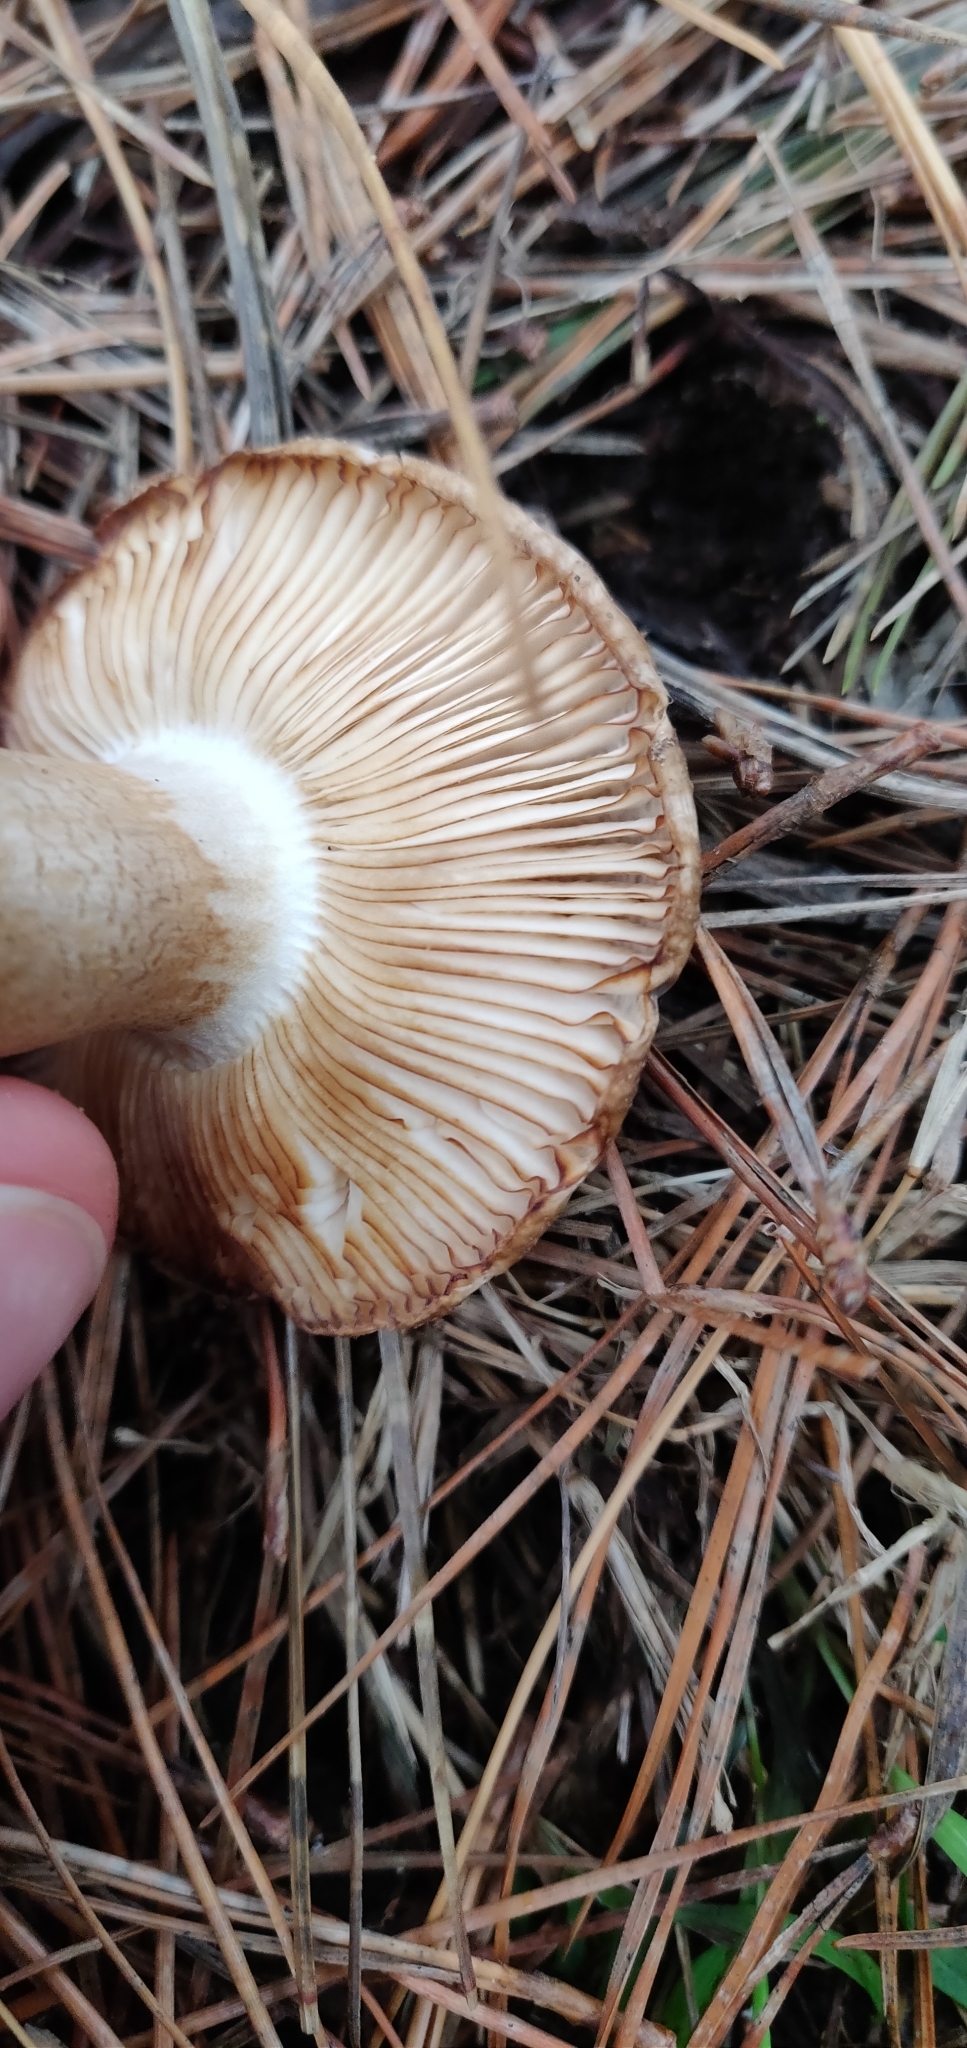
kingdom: Fungi
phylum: Basidiomycota
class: Agaricomycetes
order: Russulales
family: Russulaceae
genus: Russula
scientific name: Russula amoenolens
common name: Camembert brittlegill
